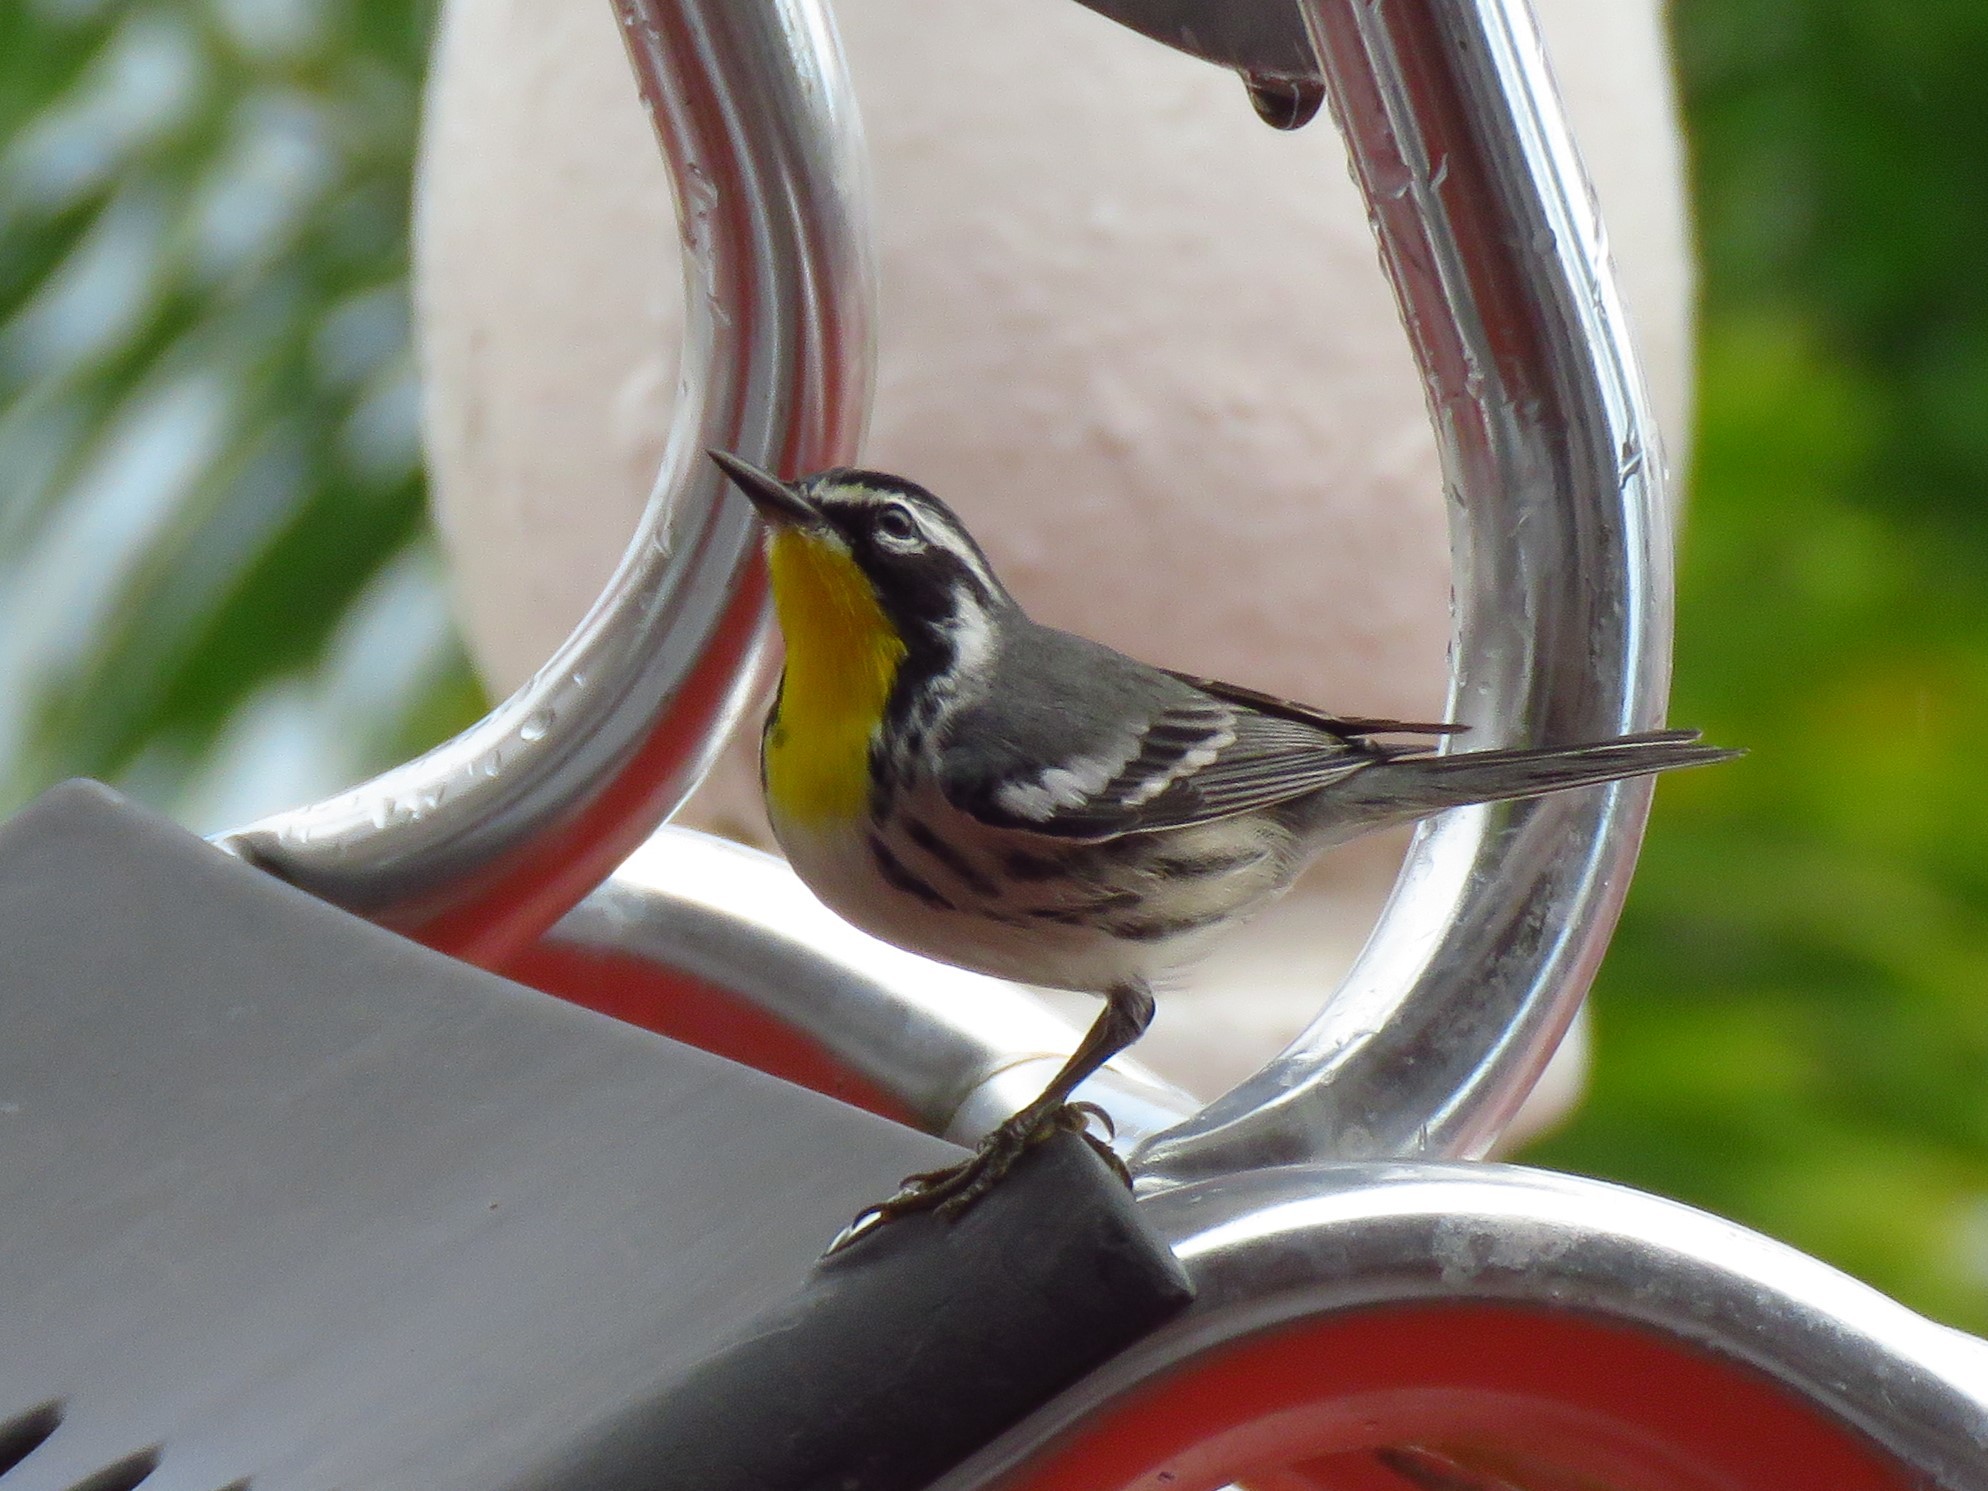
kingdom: Animalia
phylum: Chordata
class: Aves
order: Passeriformes
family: Parulidae
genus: Setophaga
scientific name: Setophaga dominica
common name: Yellow-throated warbler
